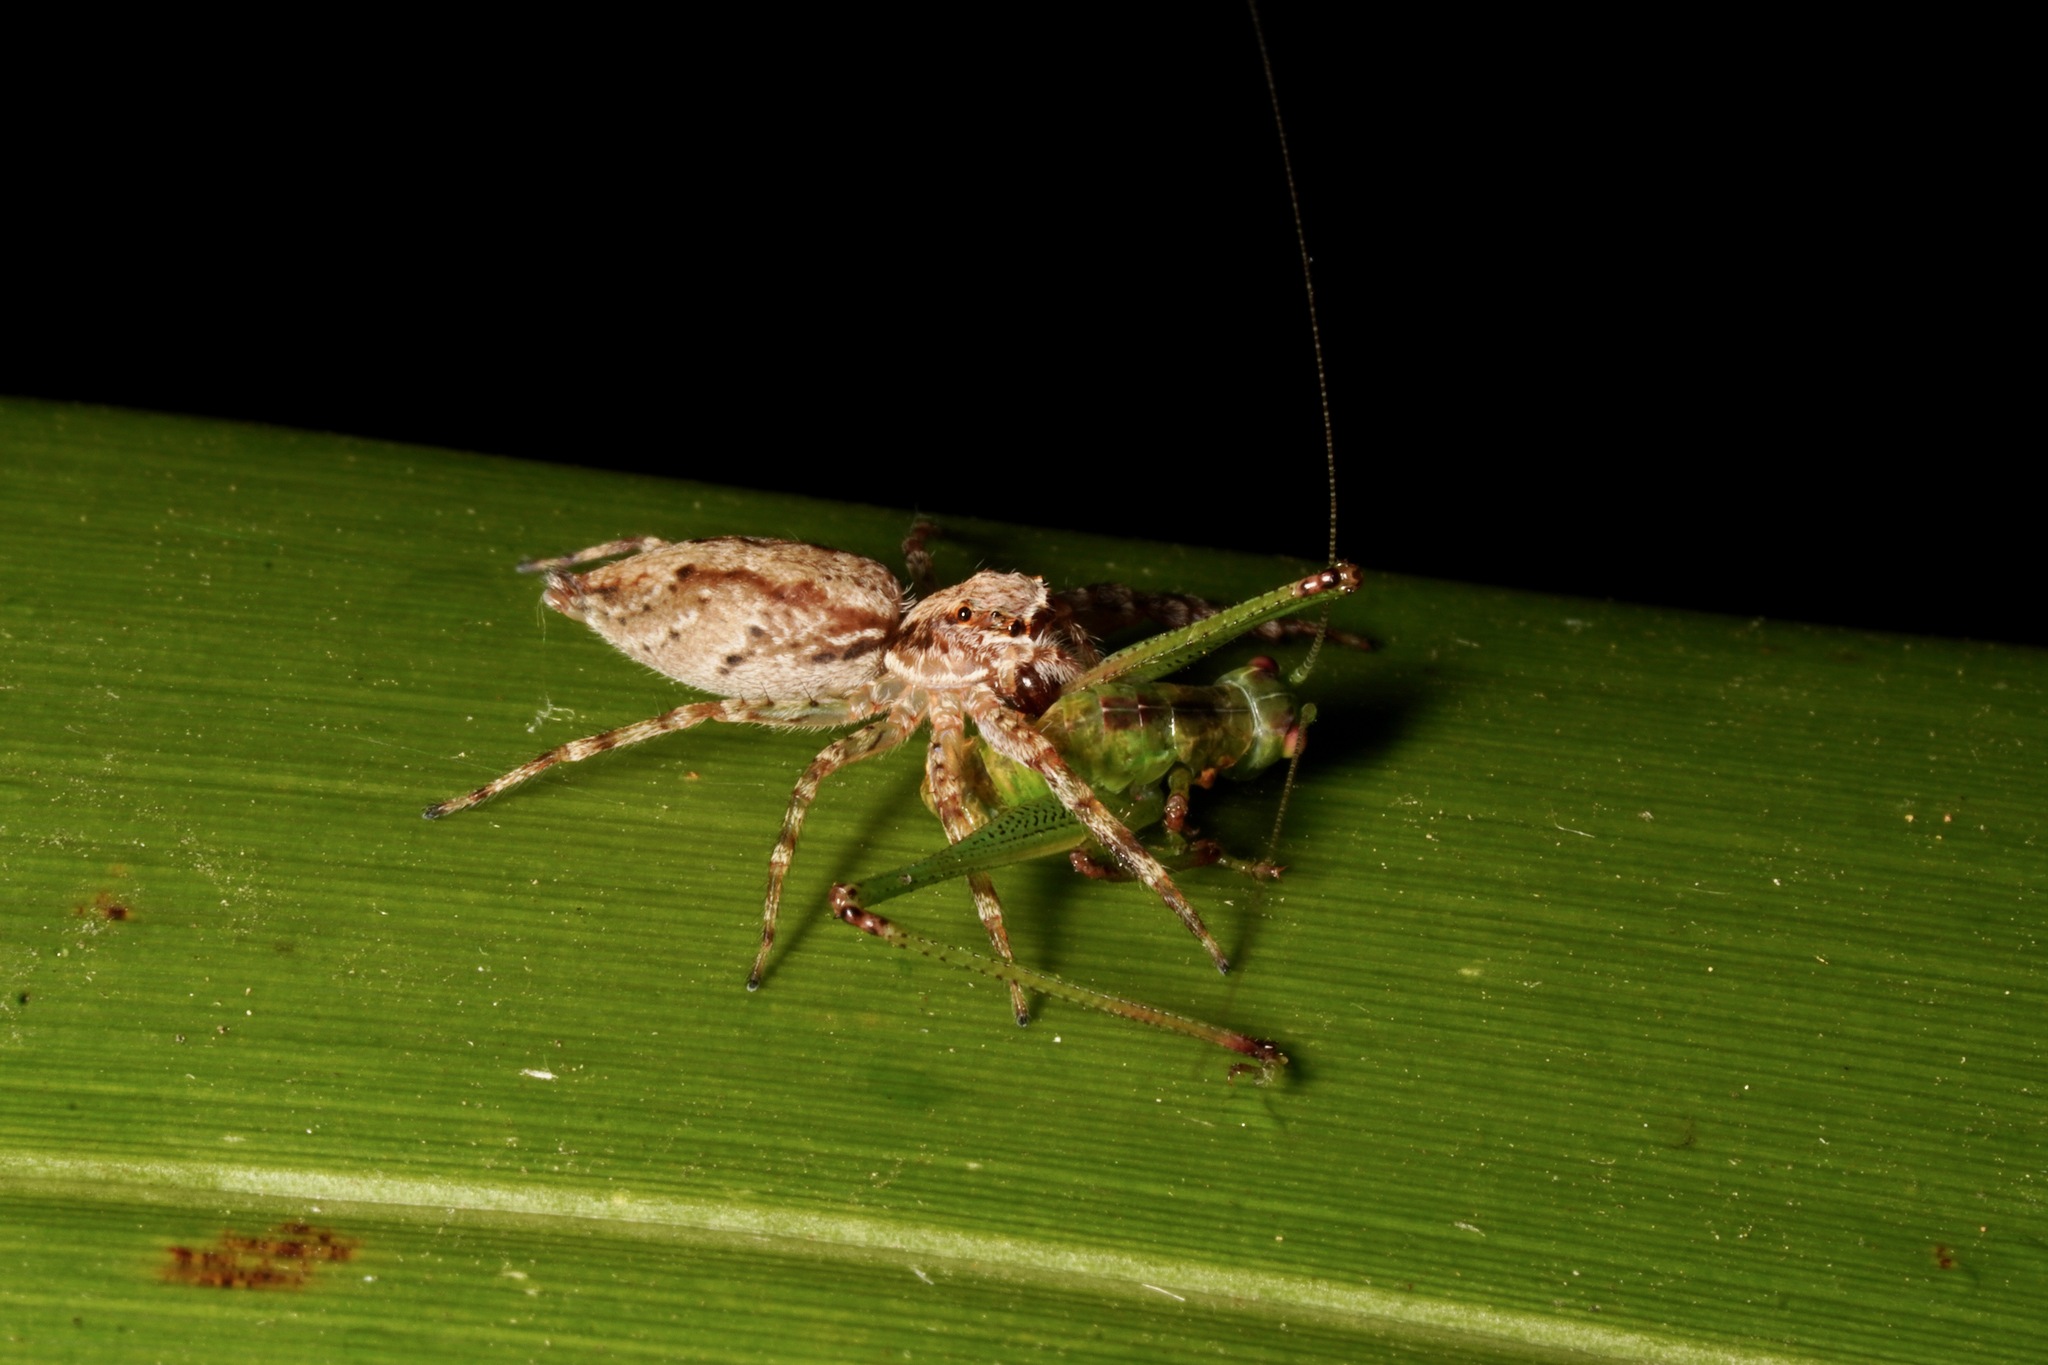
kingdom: Animalia
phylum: Arthropoda
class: Arachnida
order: Araneae
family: Salticidae
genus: Helpis
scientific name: Helpis minitabunda
